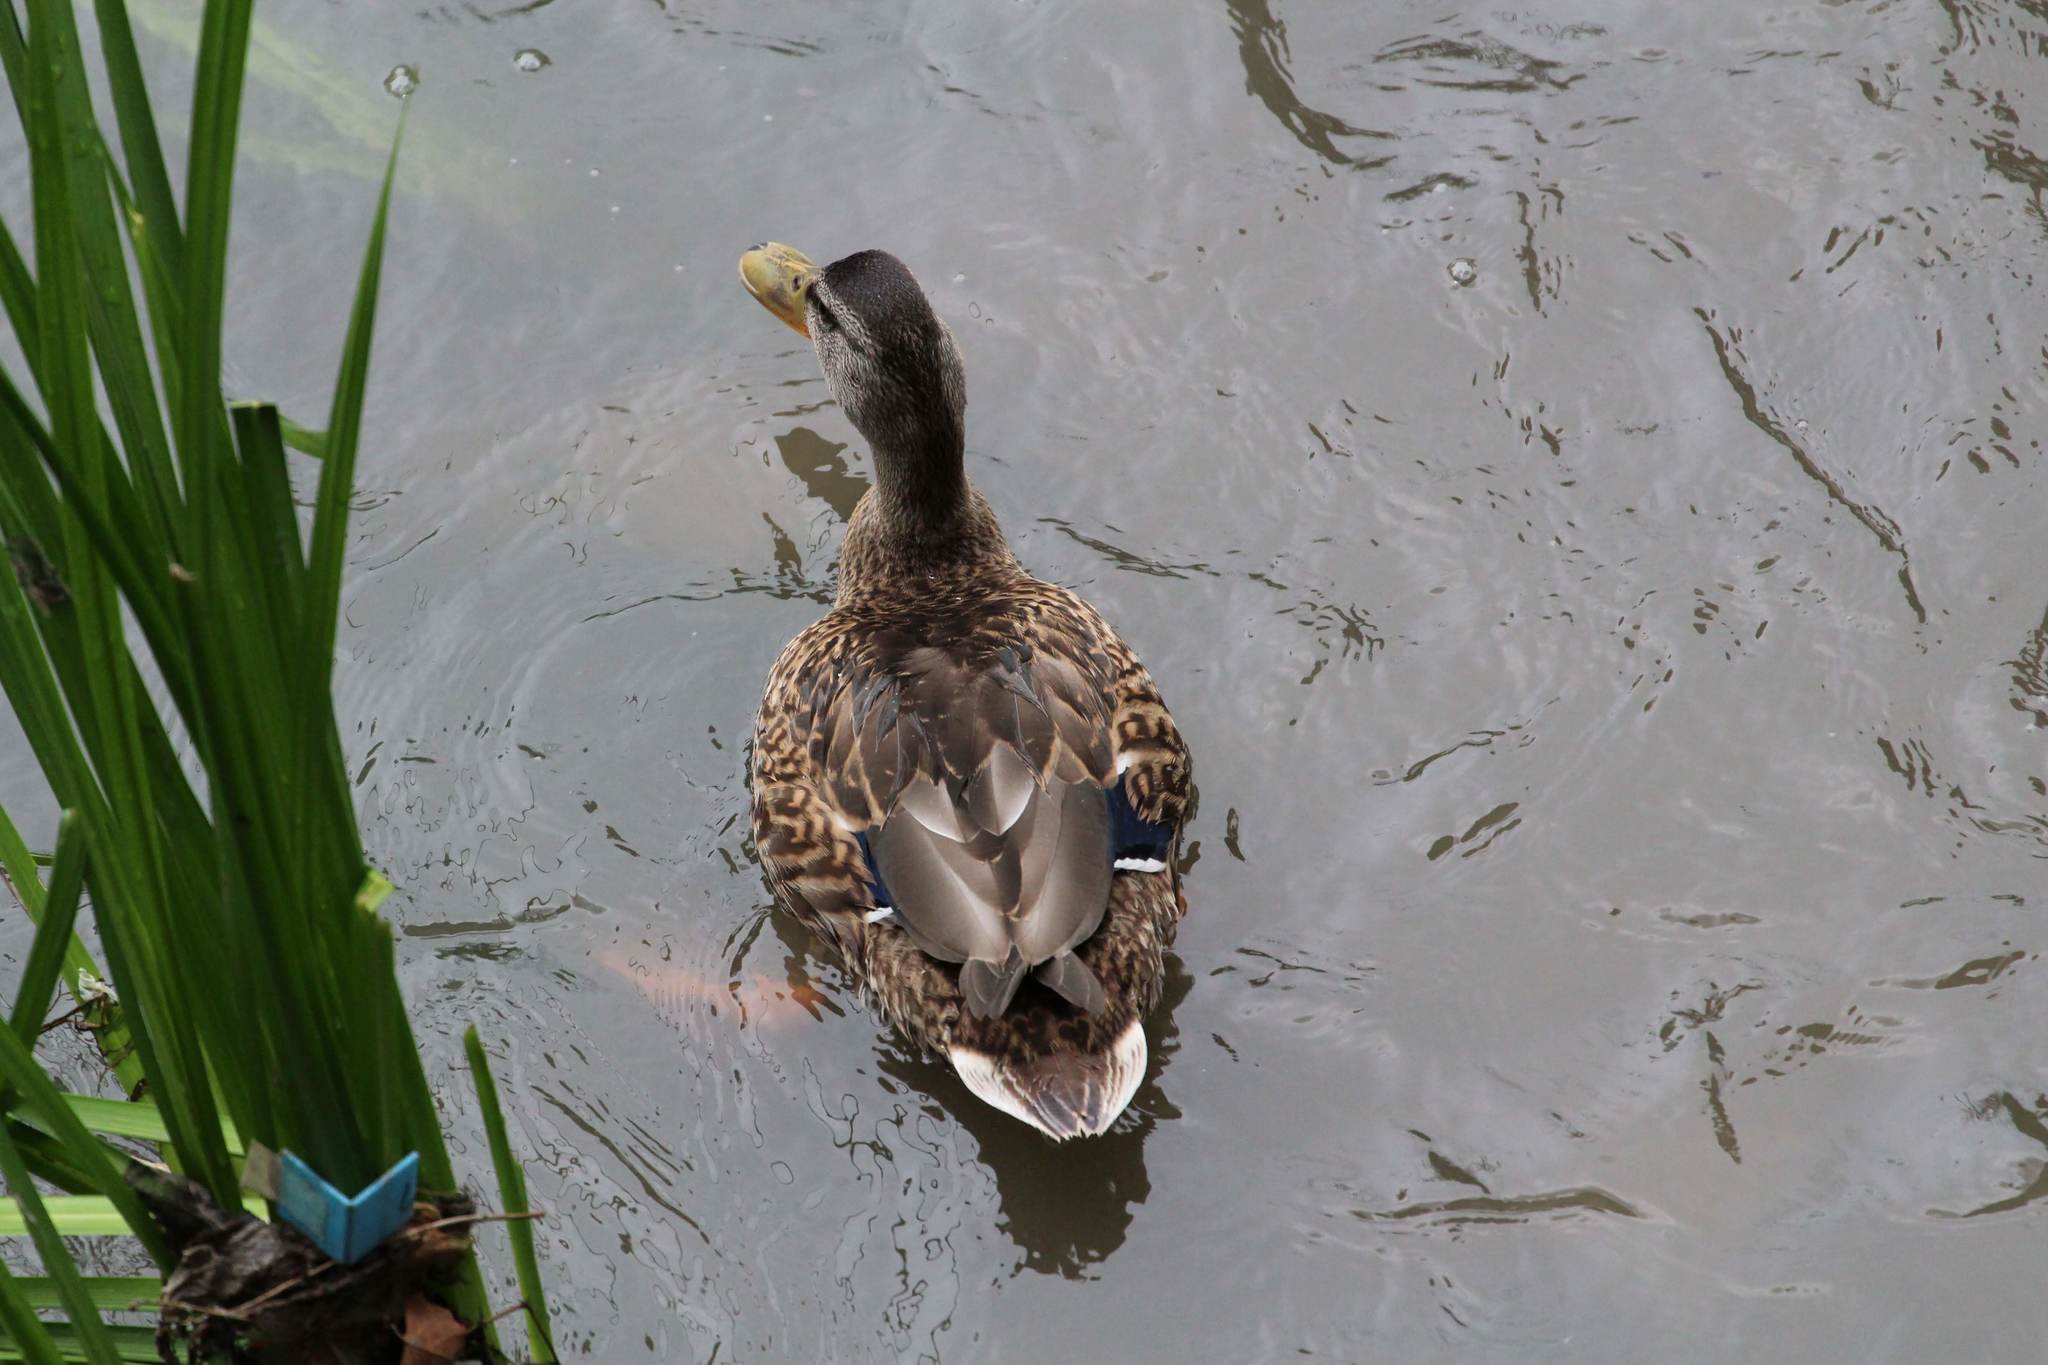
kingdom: Animalia
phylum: Chordata
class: Aves
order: Anseriformes
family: Anatidae
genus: Anas
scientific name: Anas platyrhynchos
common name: Mallard
